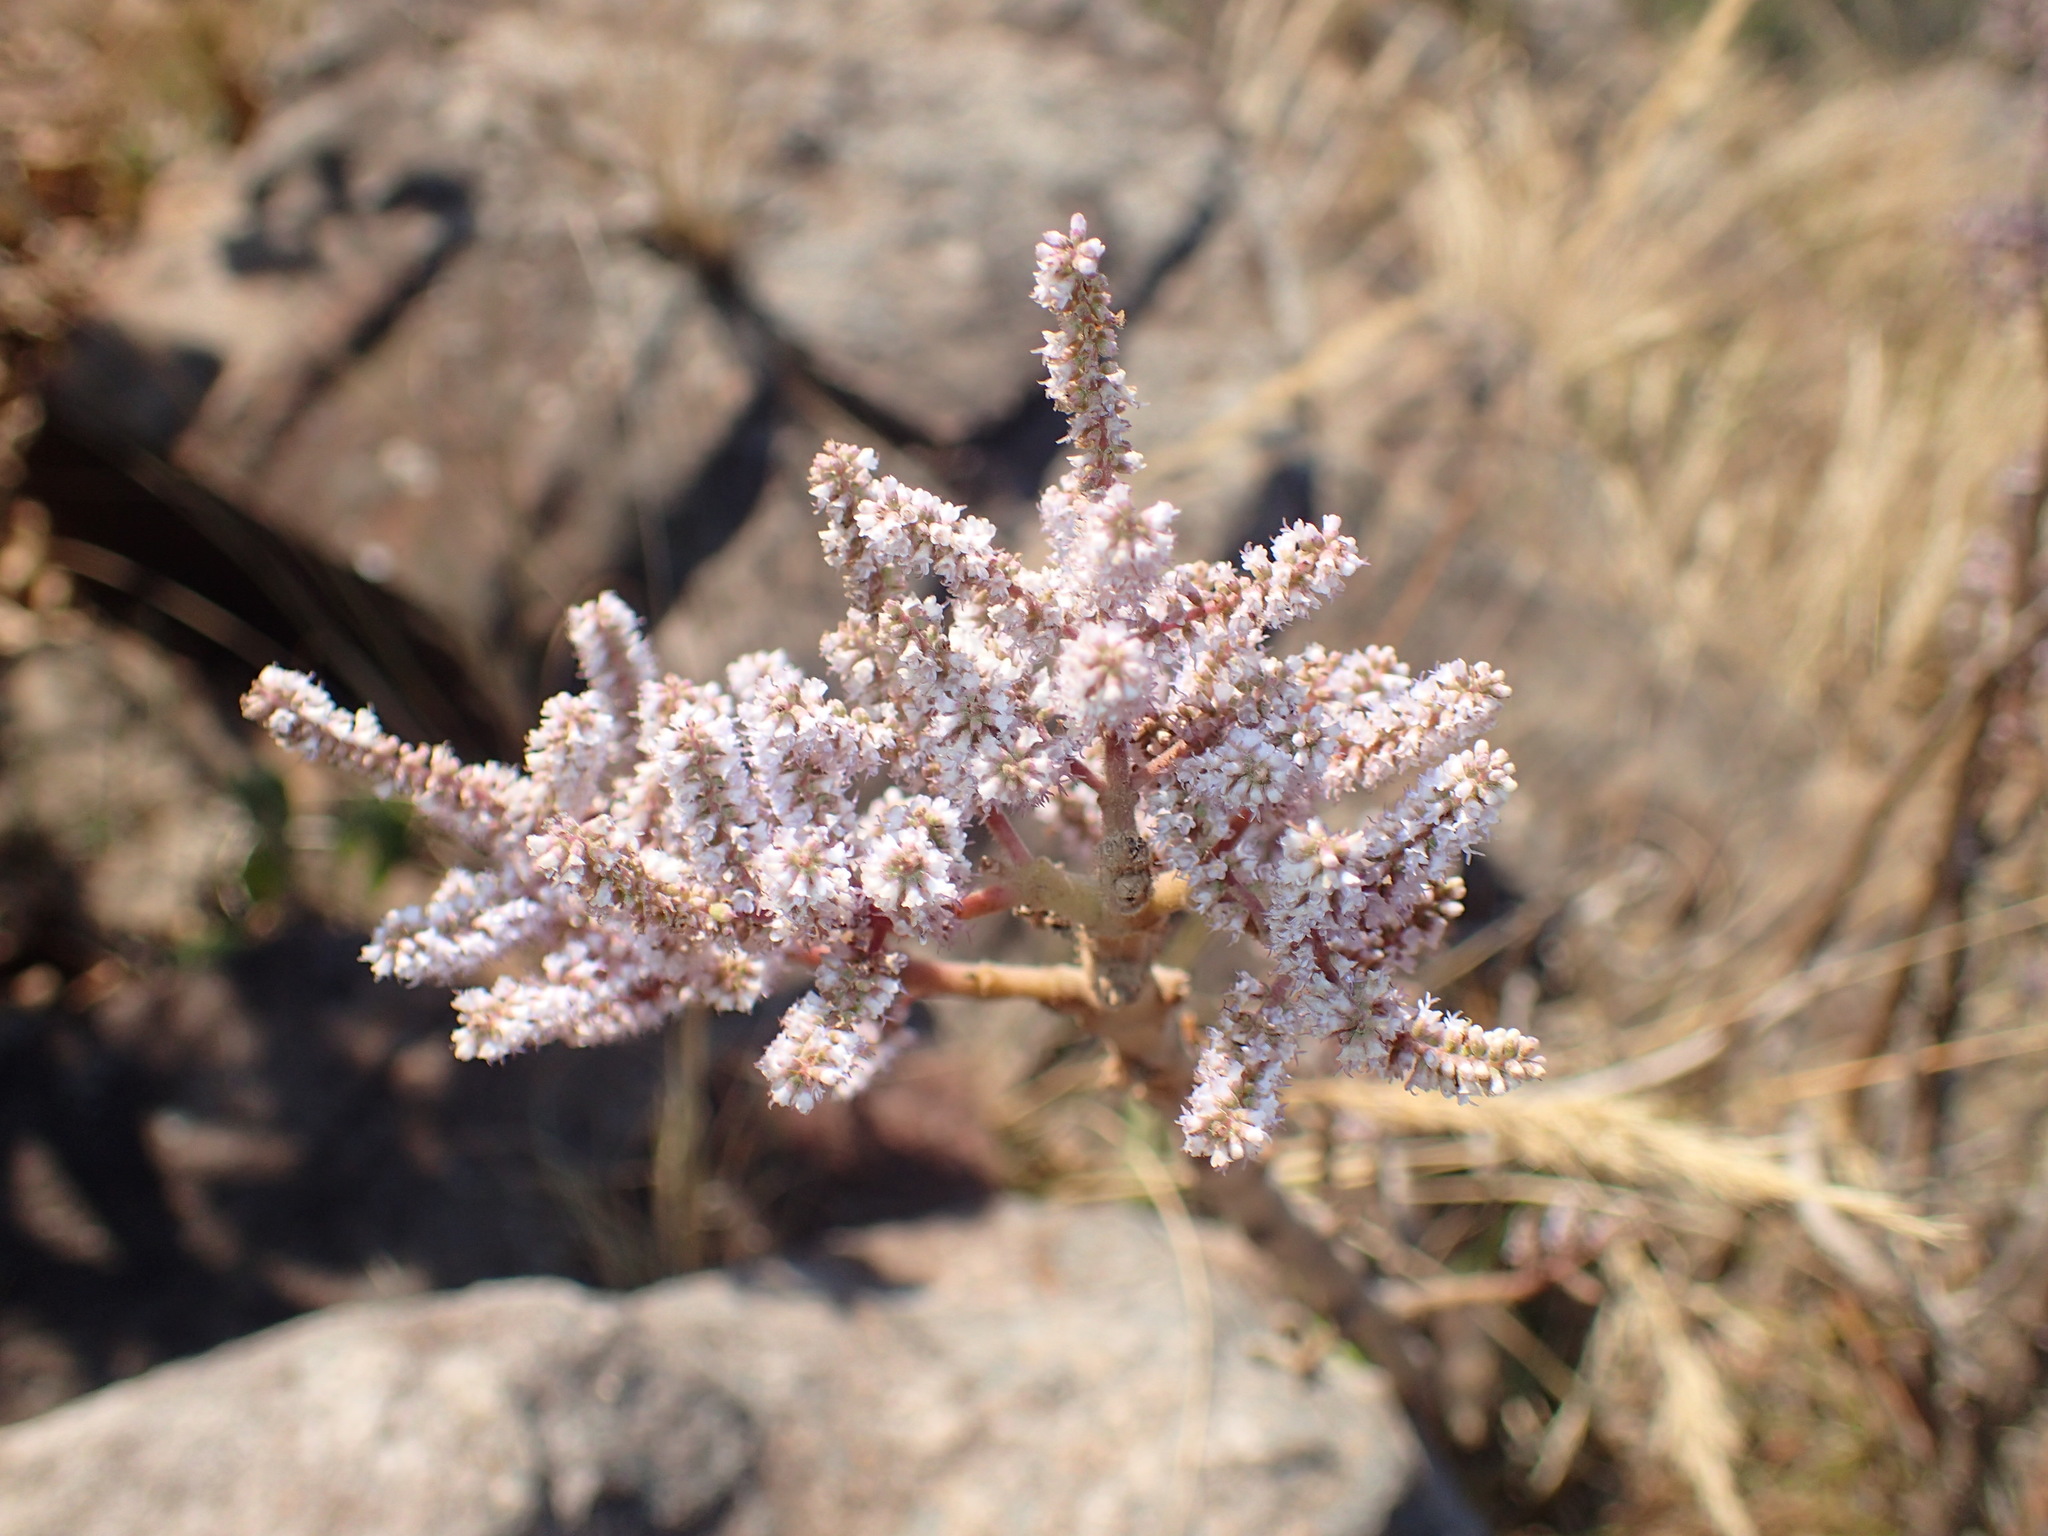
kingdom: Plantae
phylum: Tracheophyta
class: Magnoliopsida
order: Lamiales
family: Lamiaceae
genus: Tetradenia
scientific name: Tetradenia riparia
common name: Gingerbush
